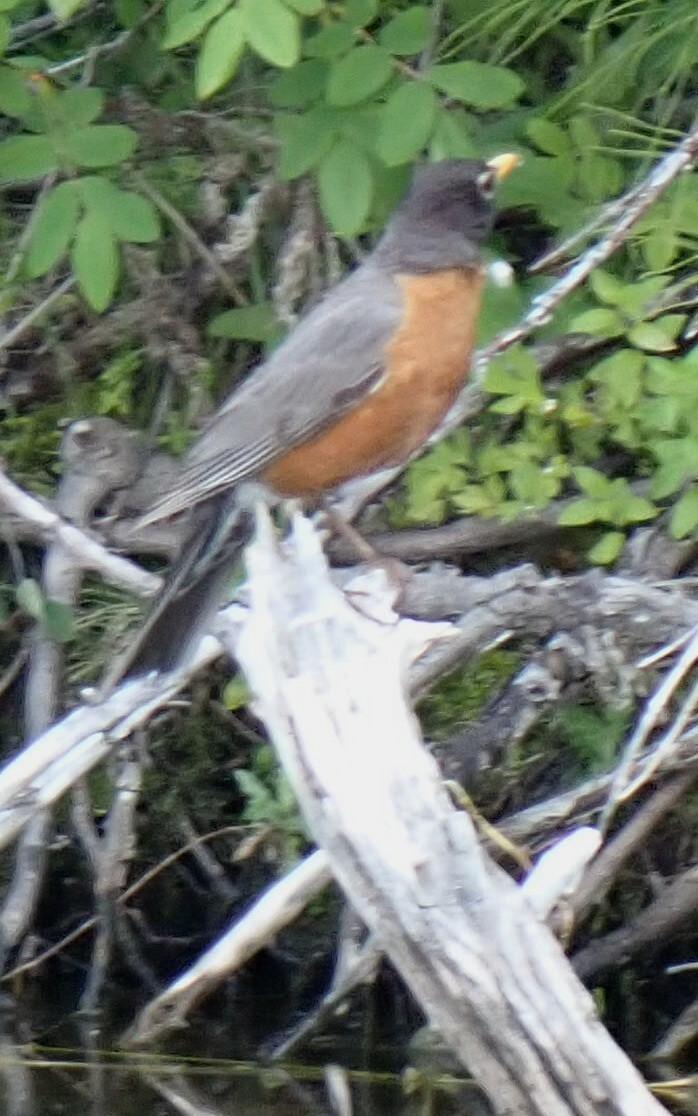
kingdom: Animalia
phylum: Chordata
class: Aves
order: Passeriformes
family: Turdidae
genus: Turdus
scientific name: Turdus migratorius
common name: American robin
